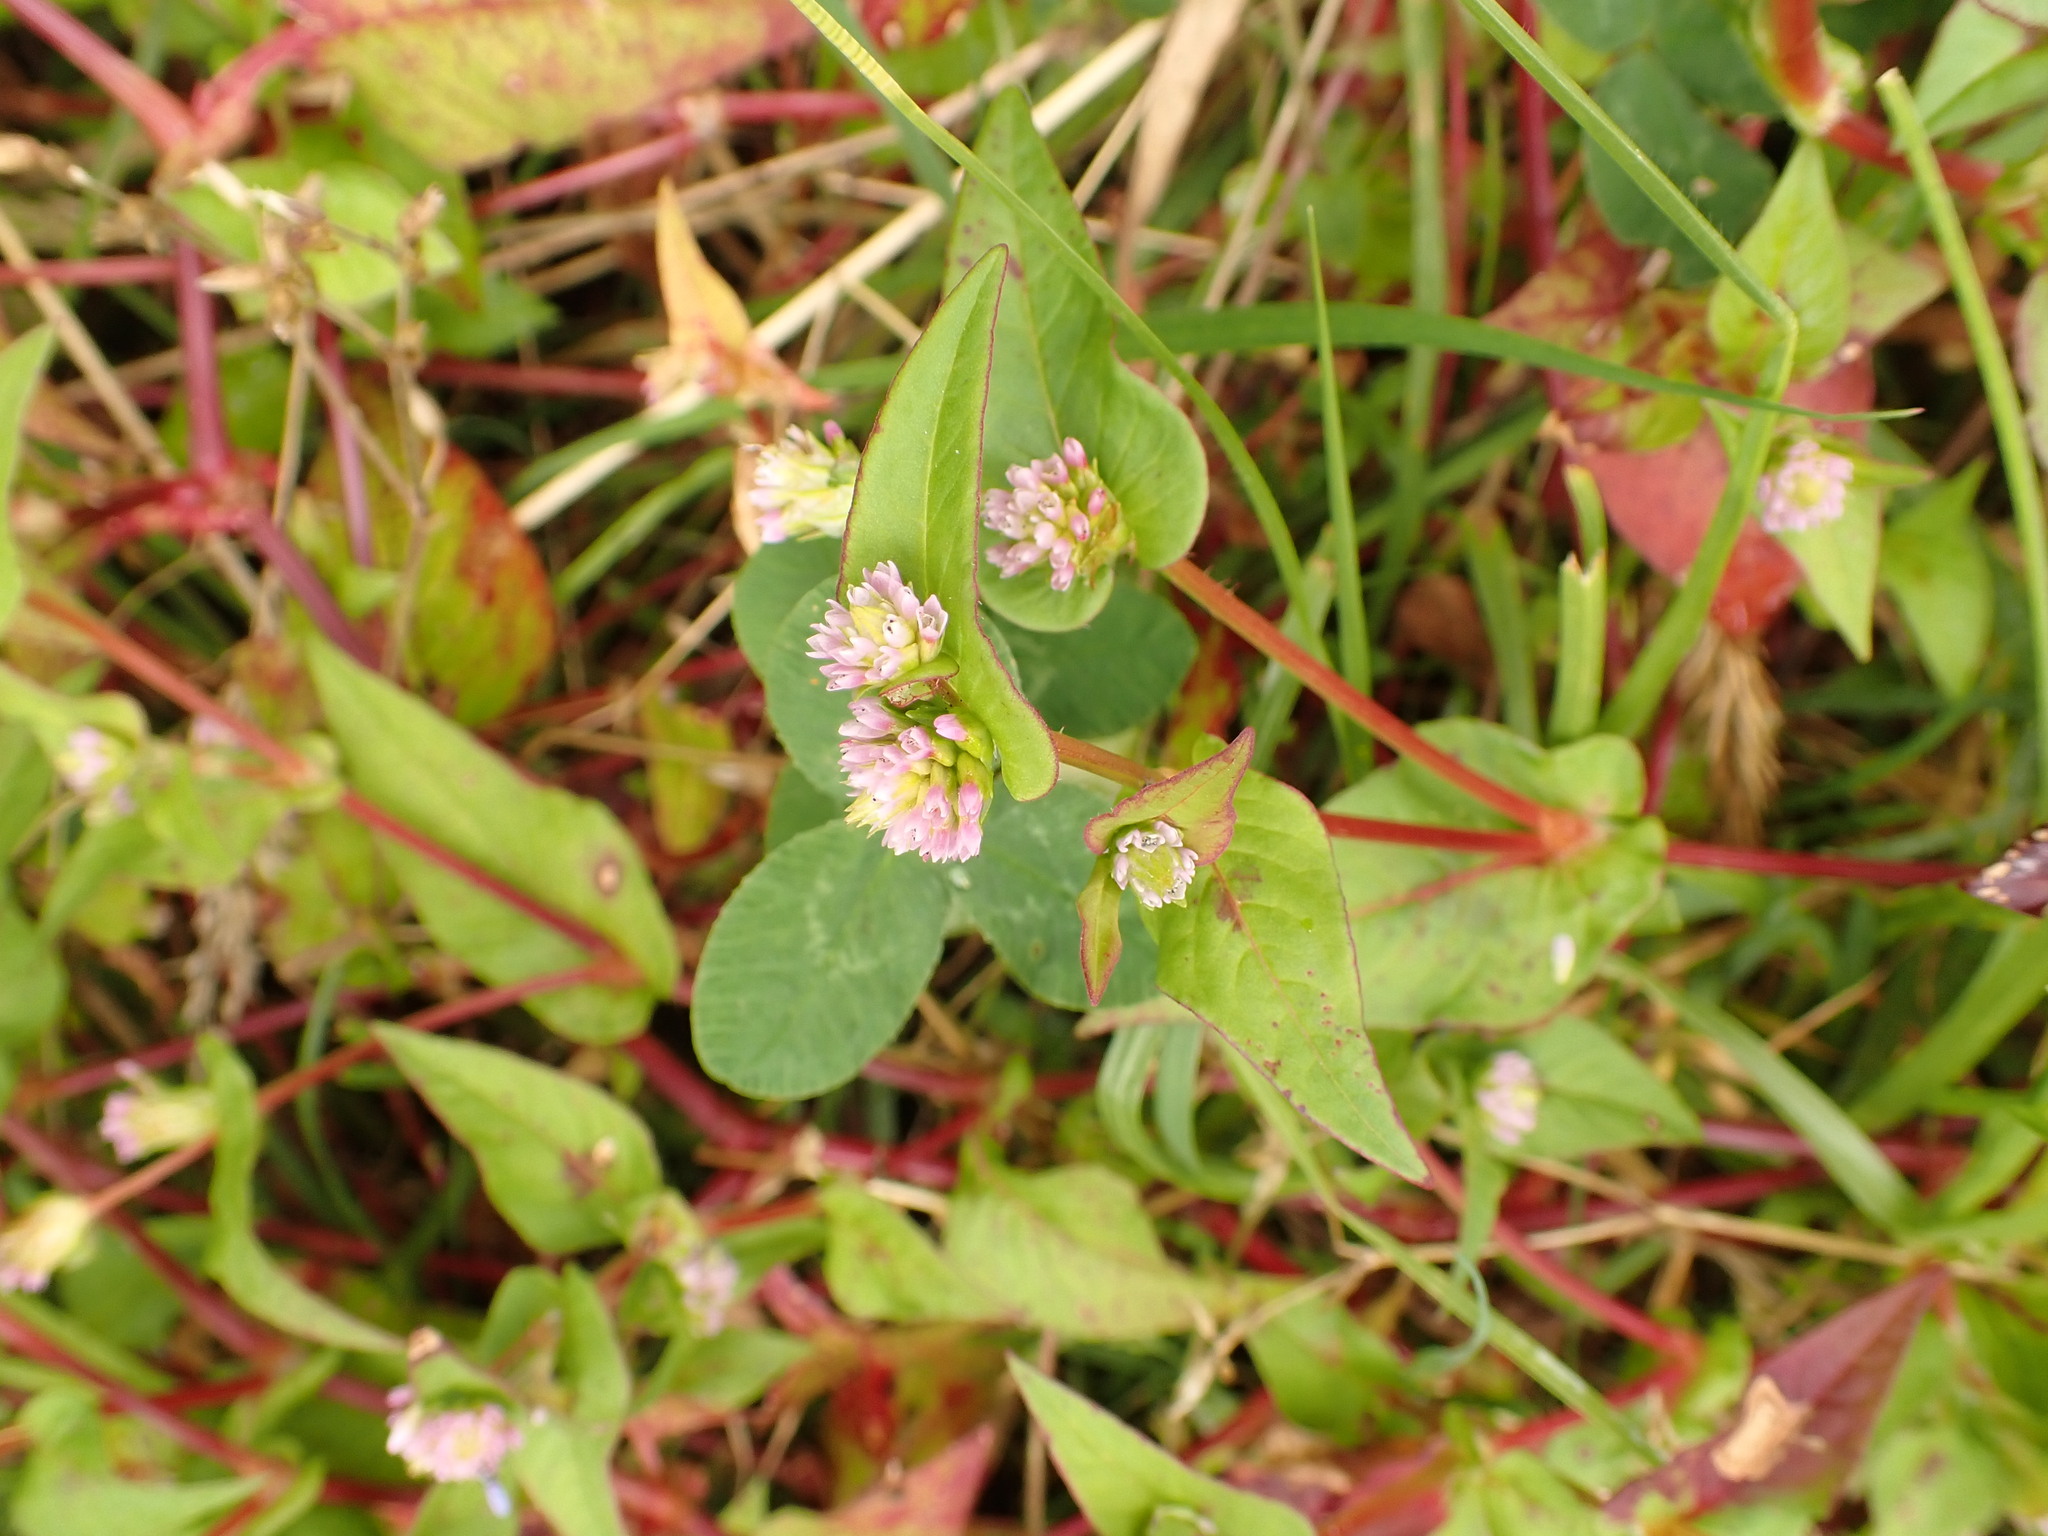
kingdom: Plantae
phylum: Tracheophyta
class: Magnoliopsida
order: Caryophyllales
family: Polygonaceae
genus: Persicaria
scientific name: Persicaria nepalensis
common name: Nepal persicaria
